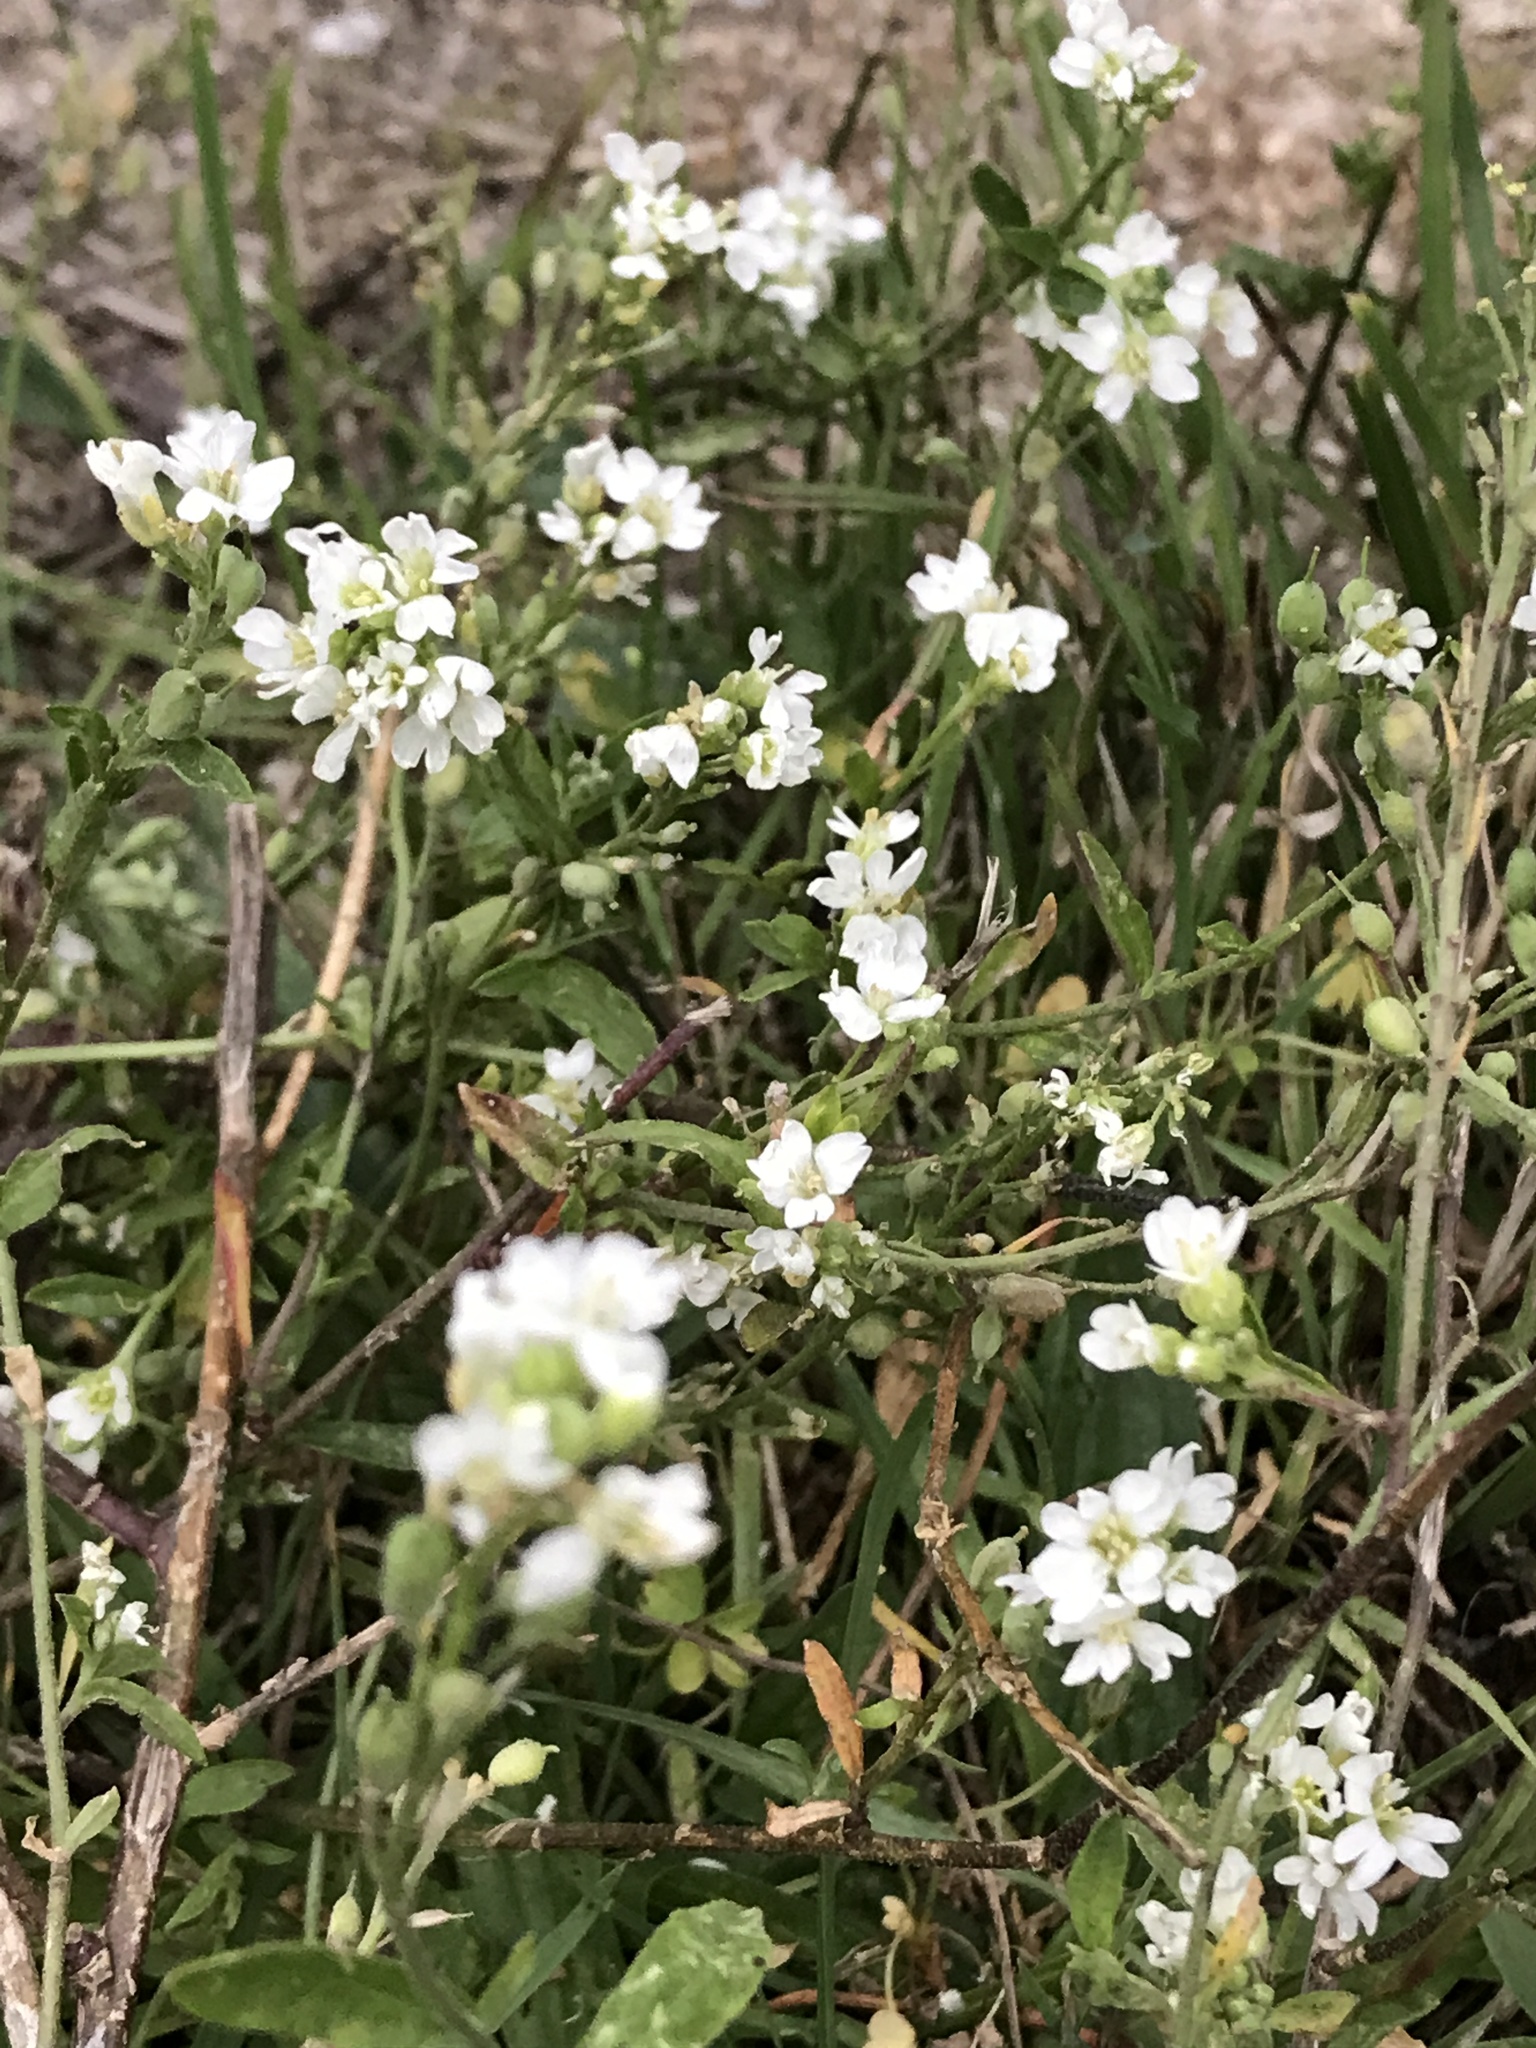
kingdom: Plantae
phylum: Tracheophyta
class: Magnoliopsida
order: Brassicales
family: Brassicaceae
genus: Berteroa
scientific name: Berteroa incana
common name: Hoary alison
